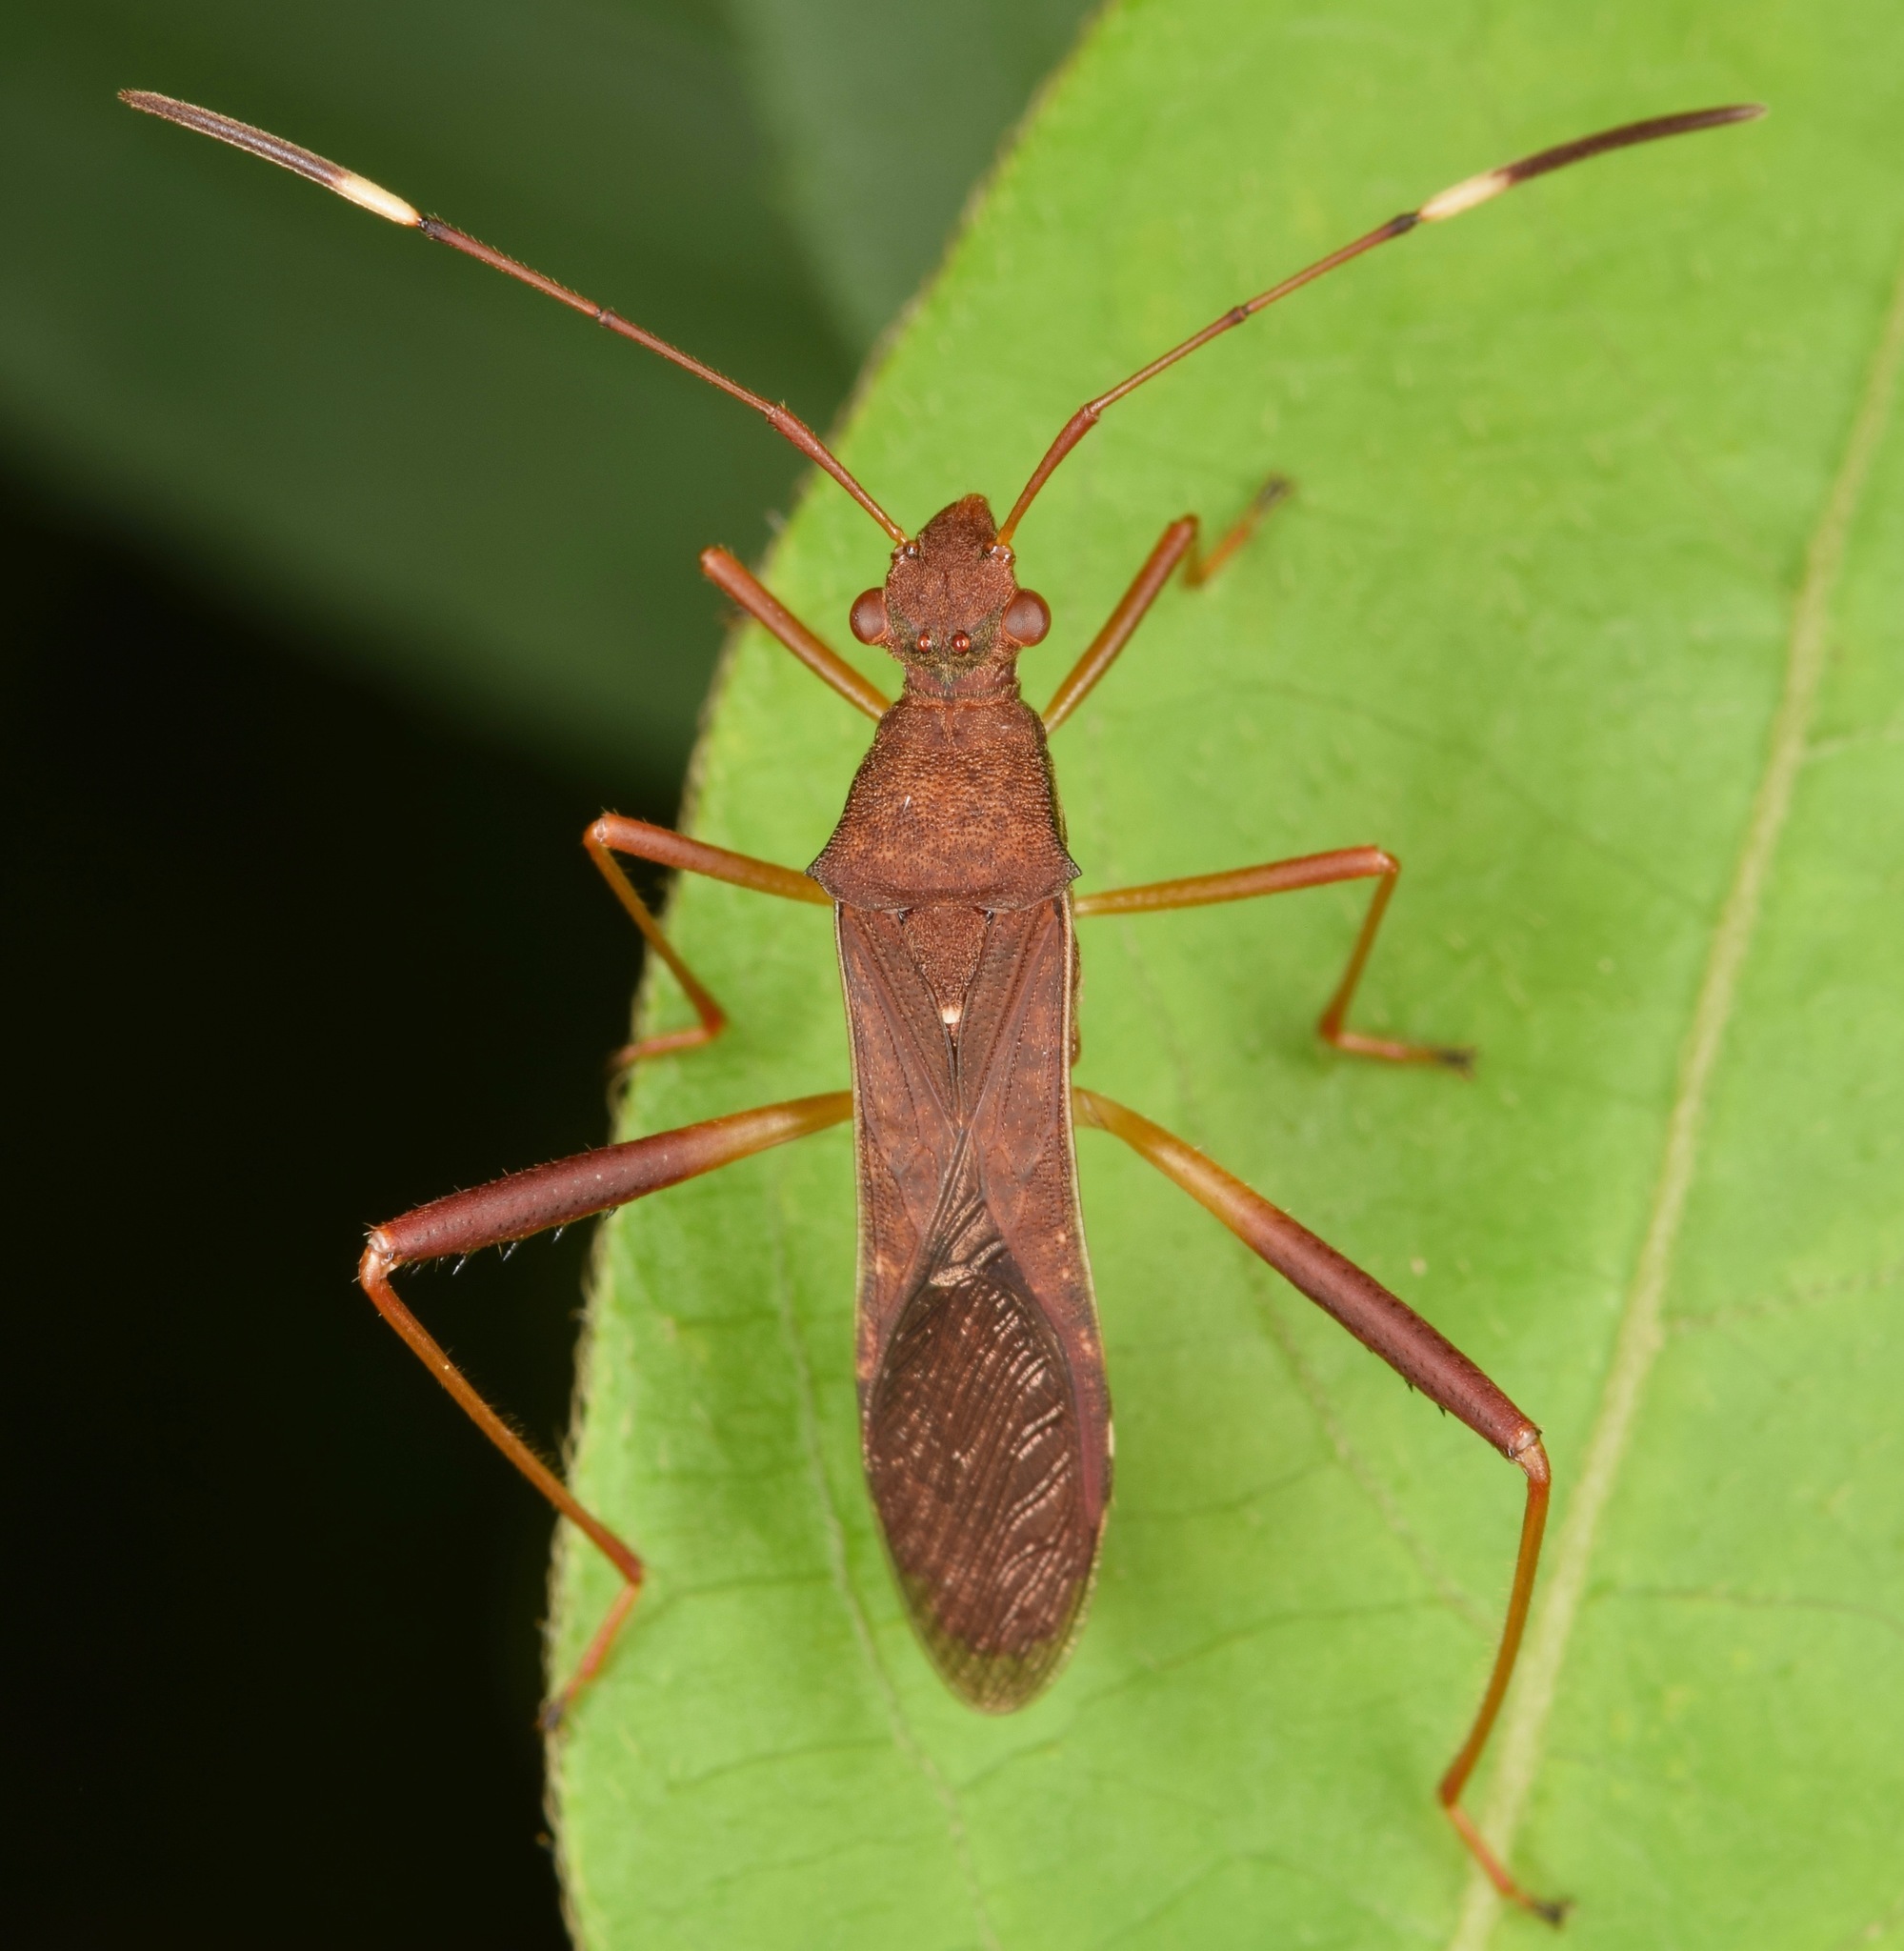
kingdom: Animalia
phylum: Arthropoda
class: Insecta
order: Hemiptera
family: Alydidae
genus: Megalotomus
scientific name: Megalotomus quinquespinosus
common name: Lupine bug
